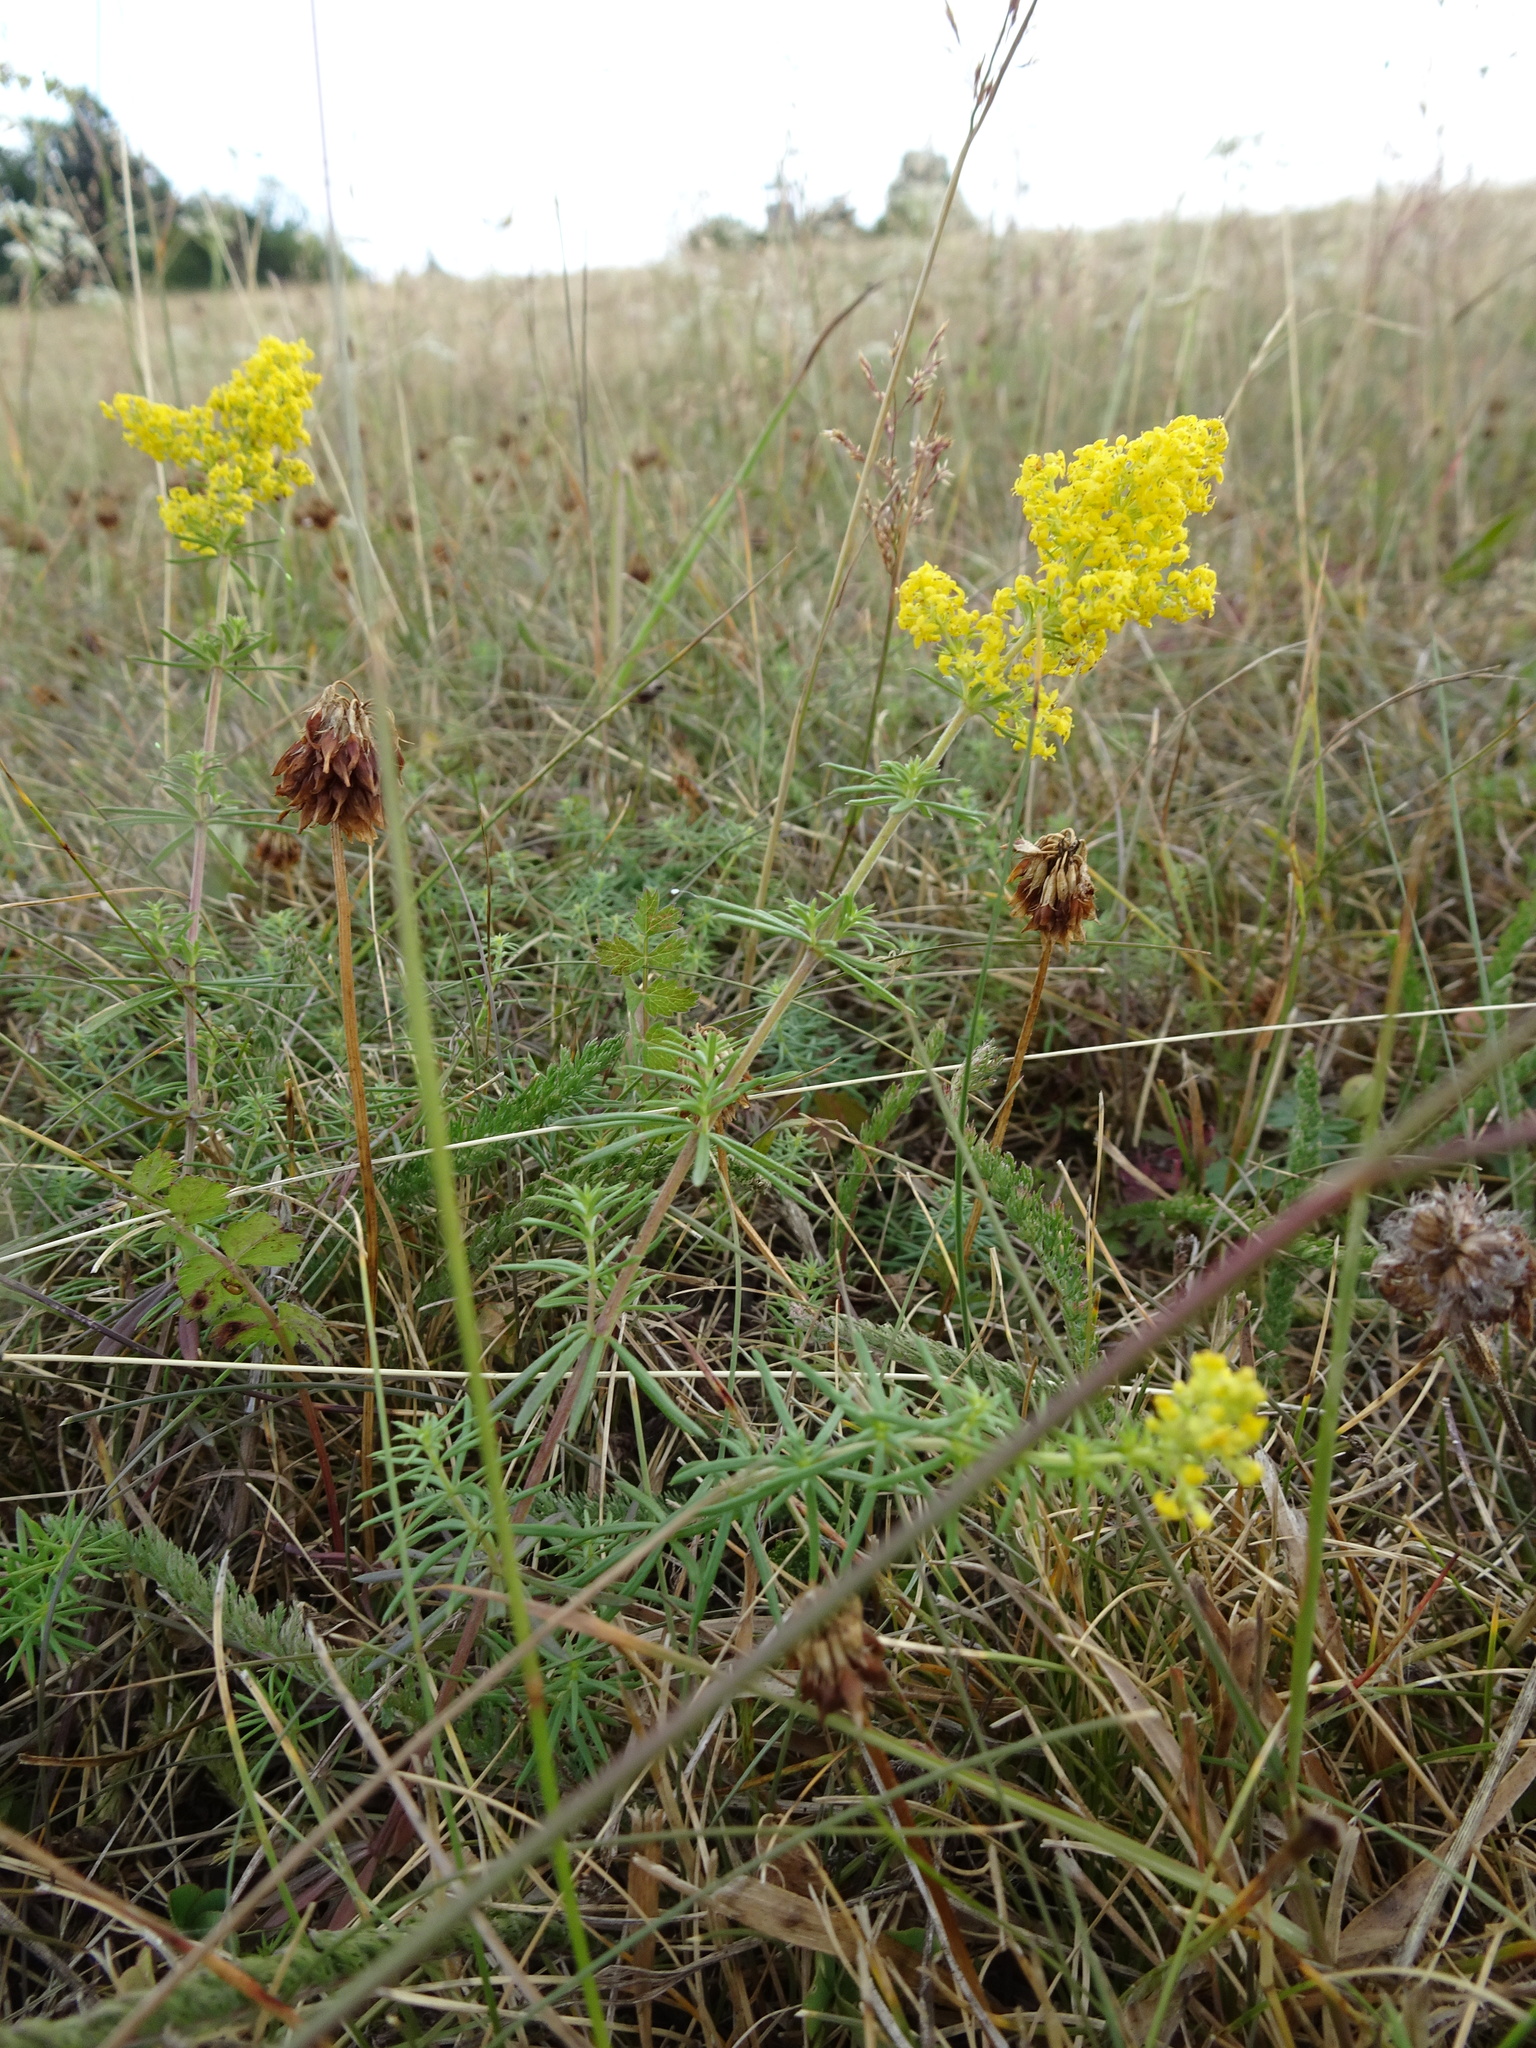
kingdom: Plantae
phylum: Tracheophyta
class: Magnoliopsida
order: Gentianales
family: Rubiaceae
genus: Galium
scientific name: Galium verum
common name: Lady's bedstraw
